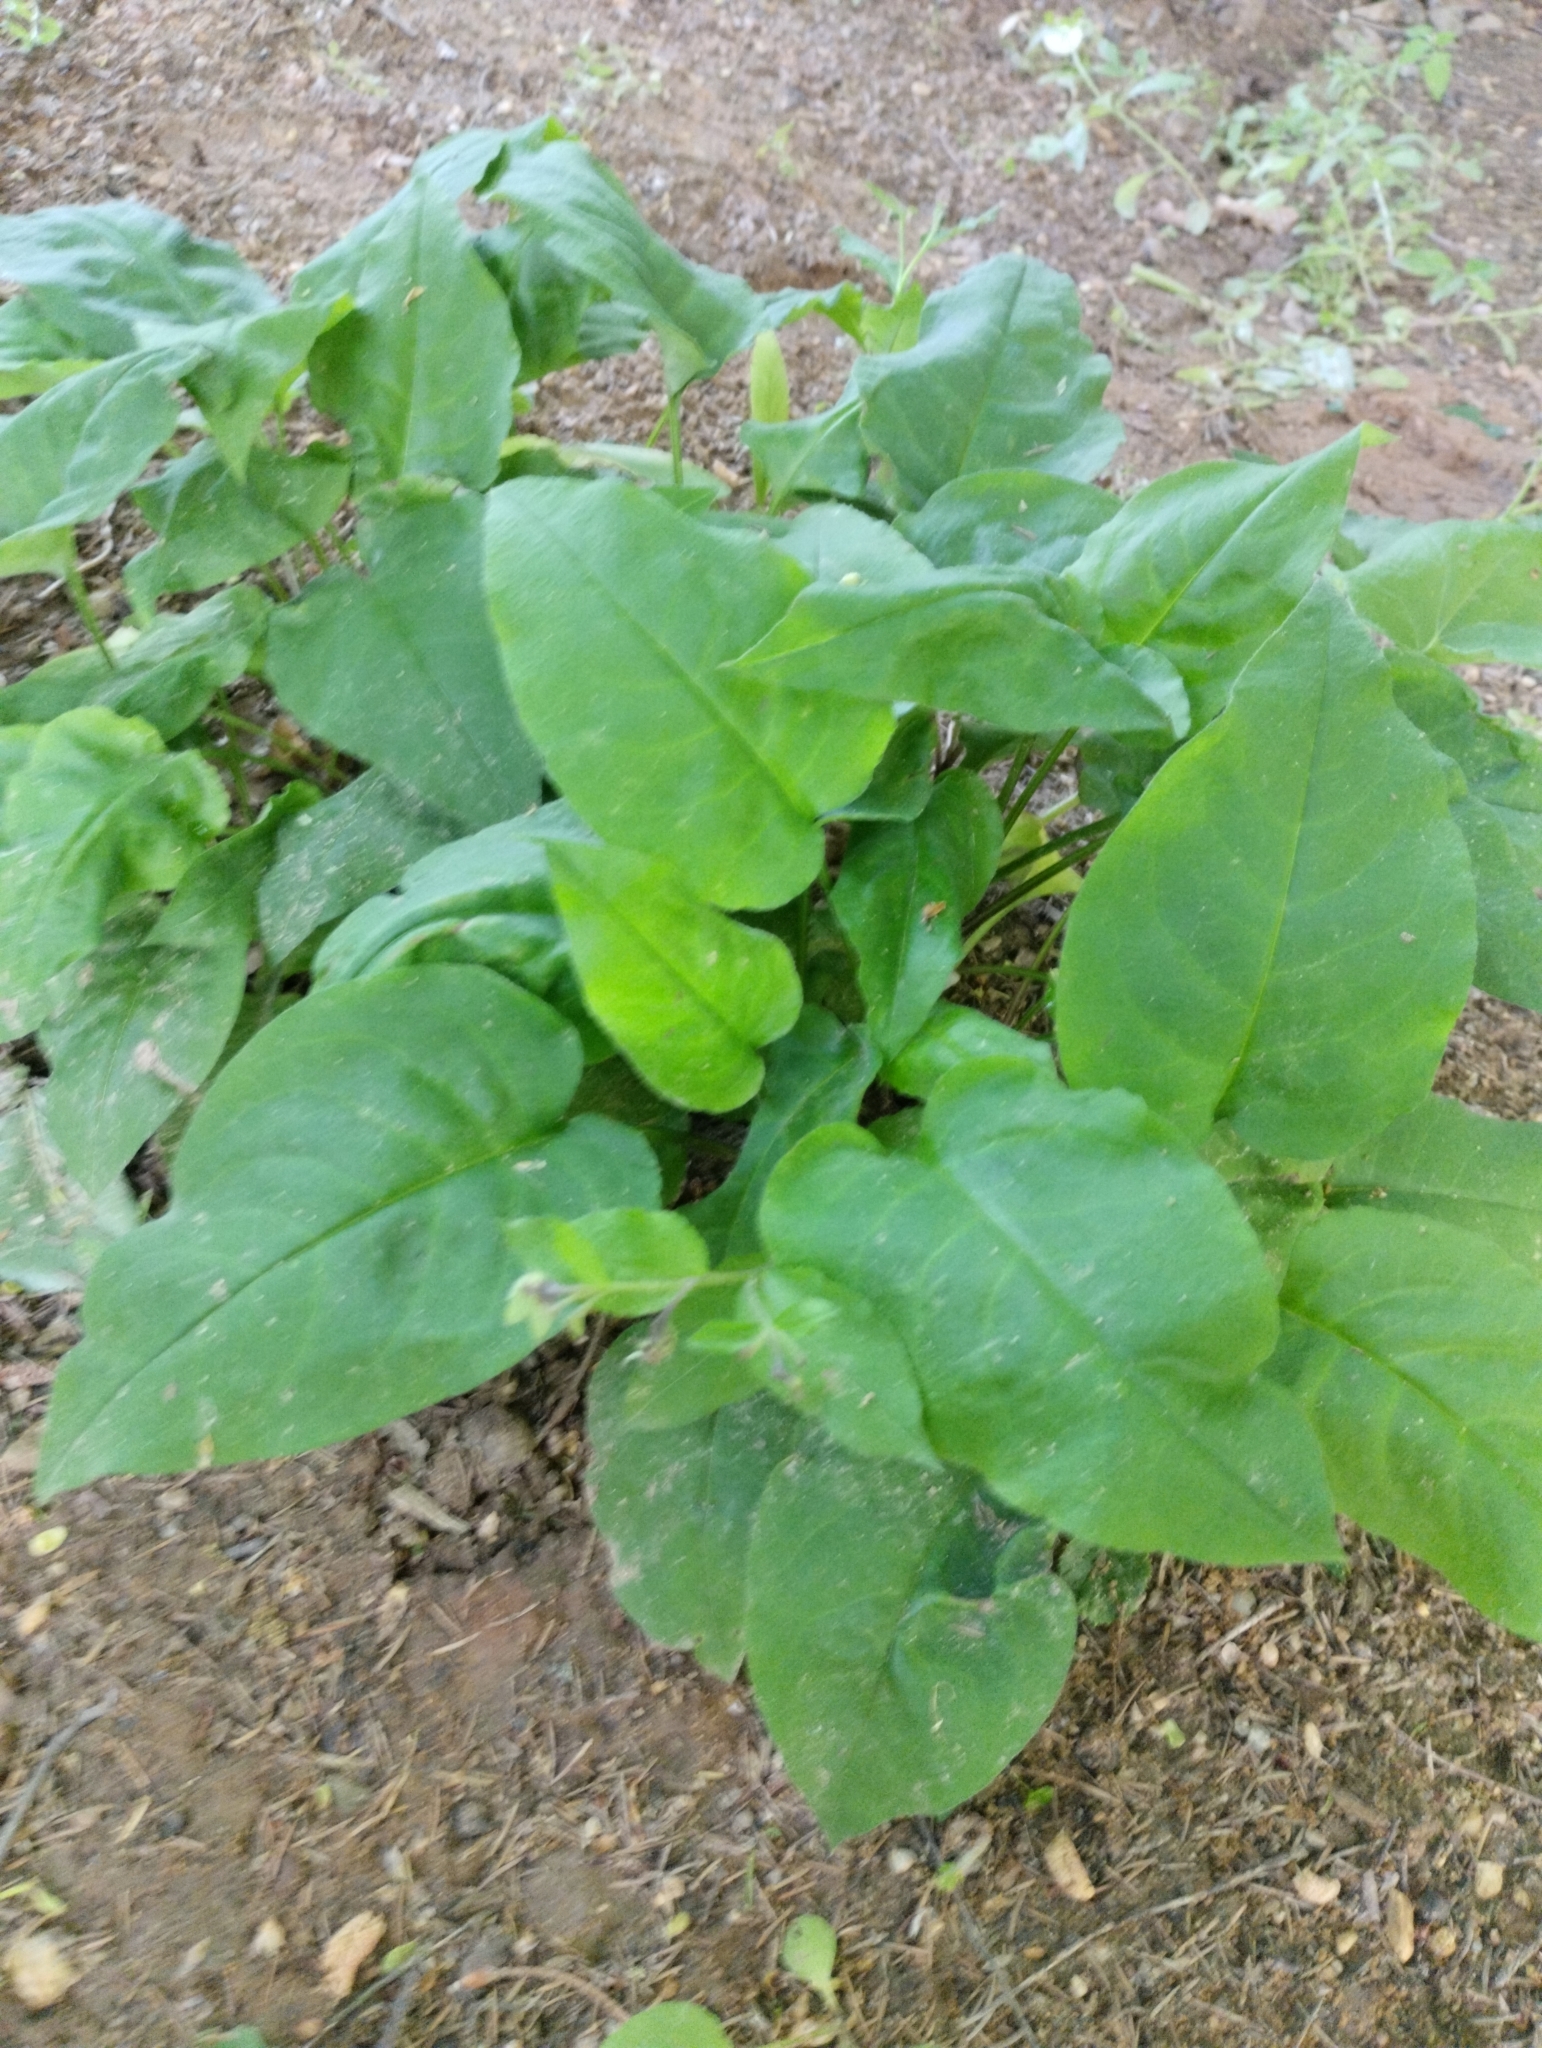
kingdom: Plantae
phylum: Tracheophyta
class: Magnoliopsida
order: Boraginales
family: Boraginaceae
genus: Pulmonaria
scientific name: Pulmonaria obscura
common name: Suffolk lungwort
